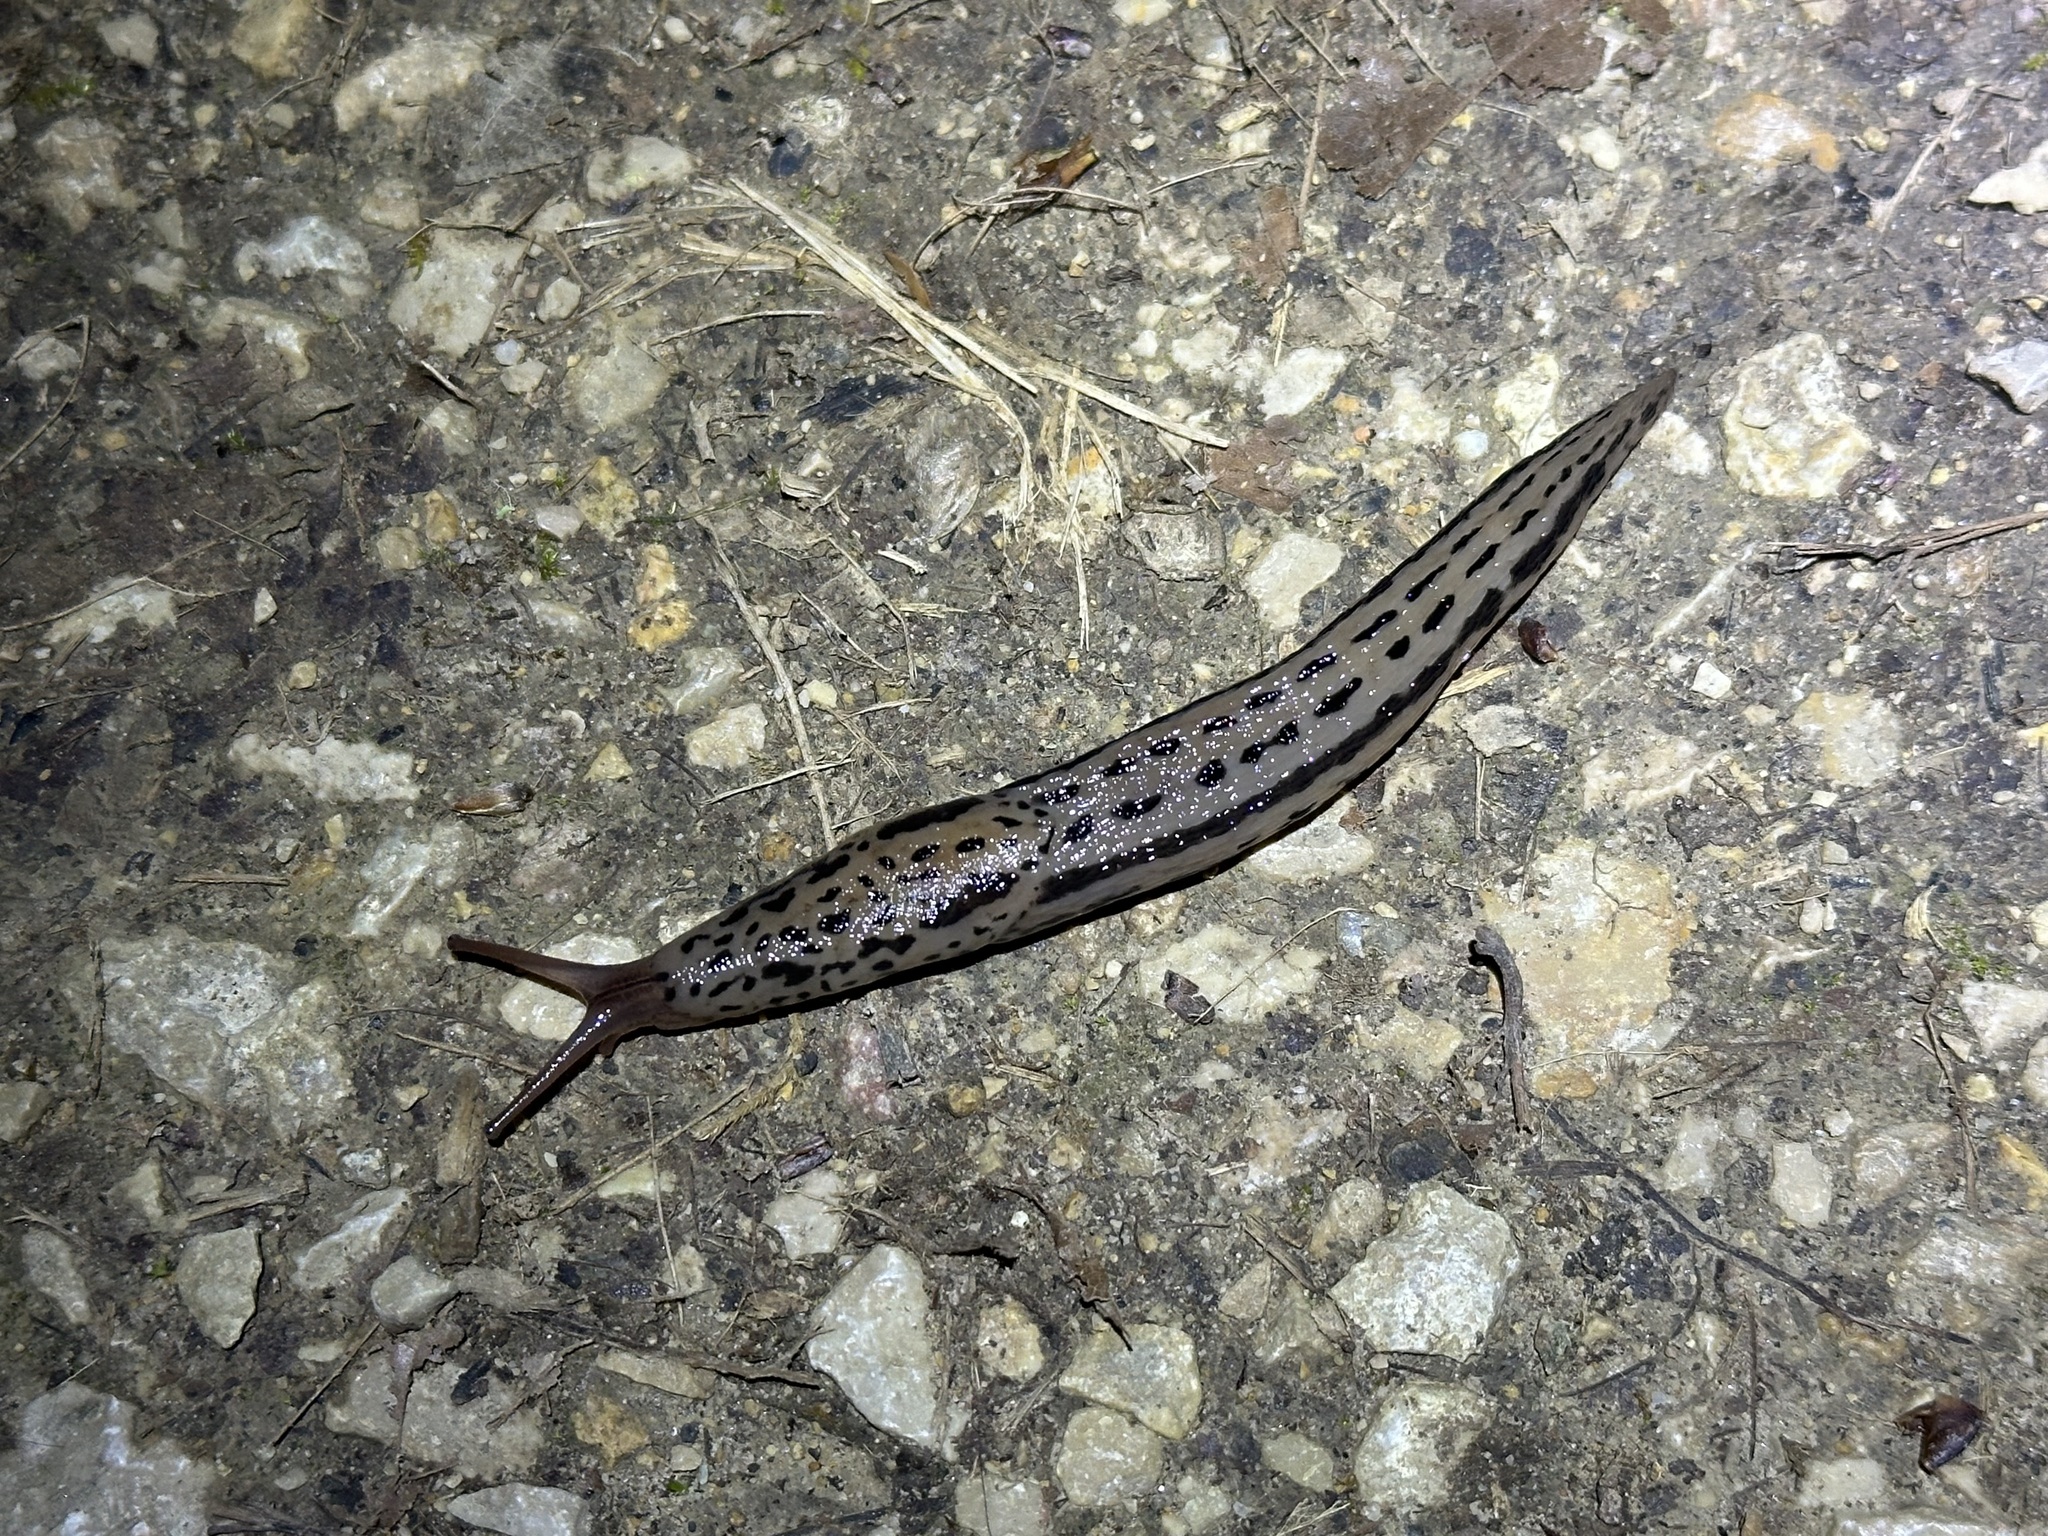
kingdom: Animalia
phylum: Mollusca
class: Gastropoda
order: Stylommatophora
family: Limacidae
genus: Limax
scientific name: Limax maximus
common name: Great grey slug
